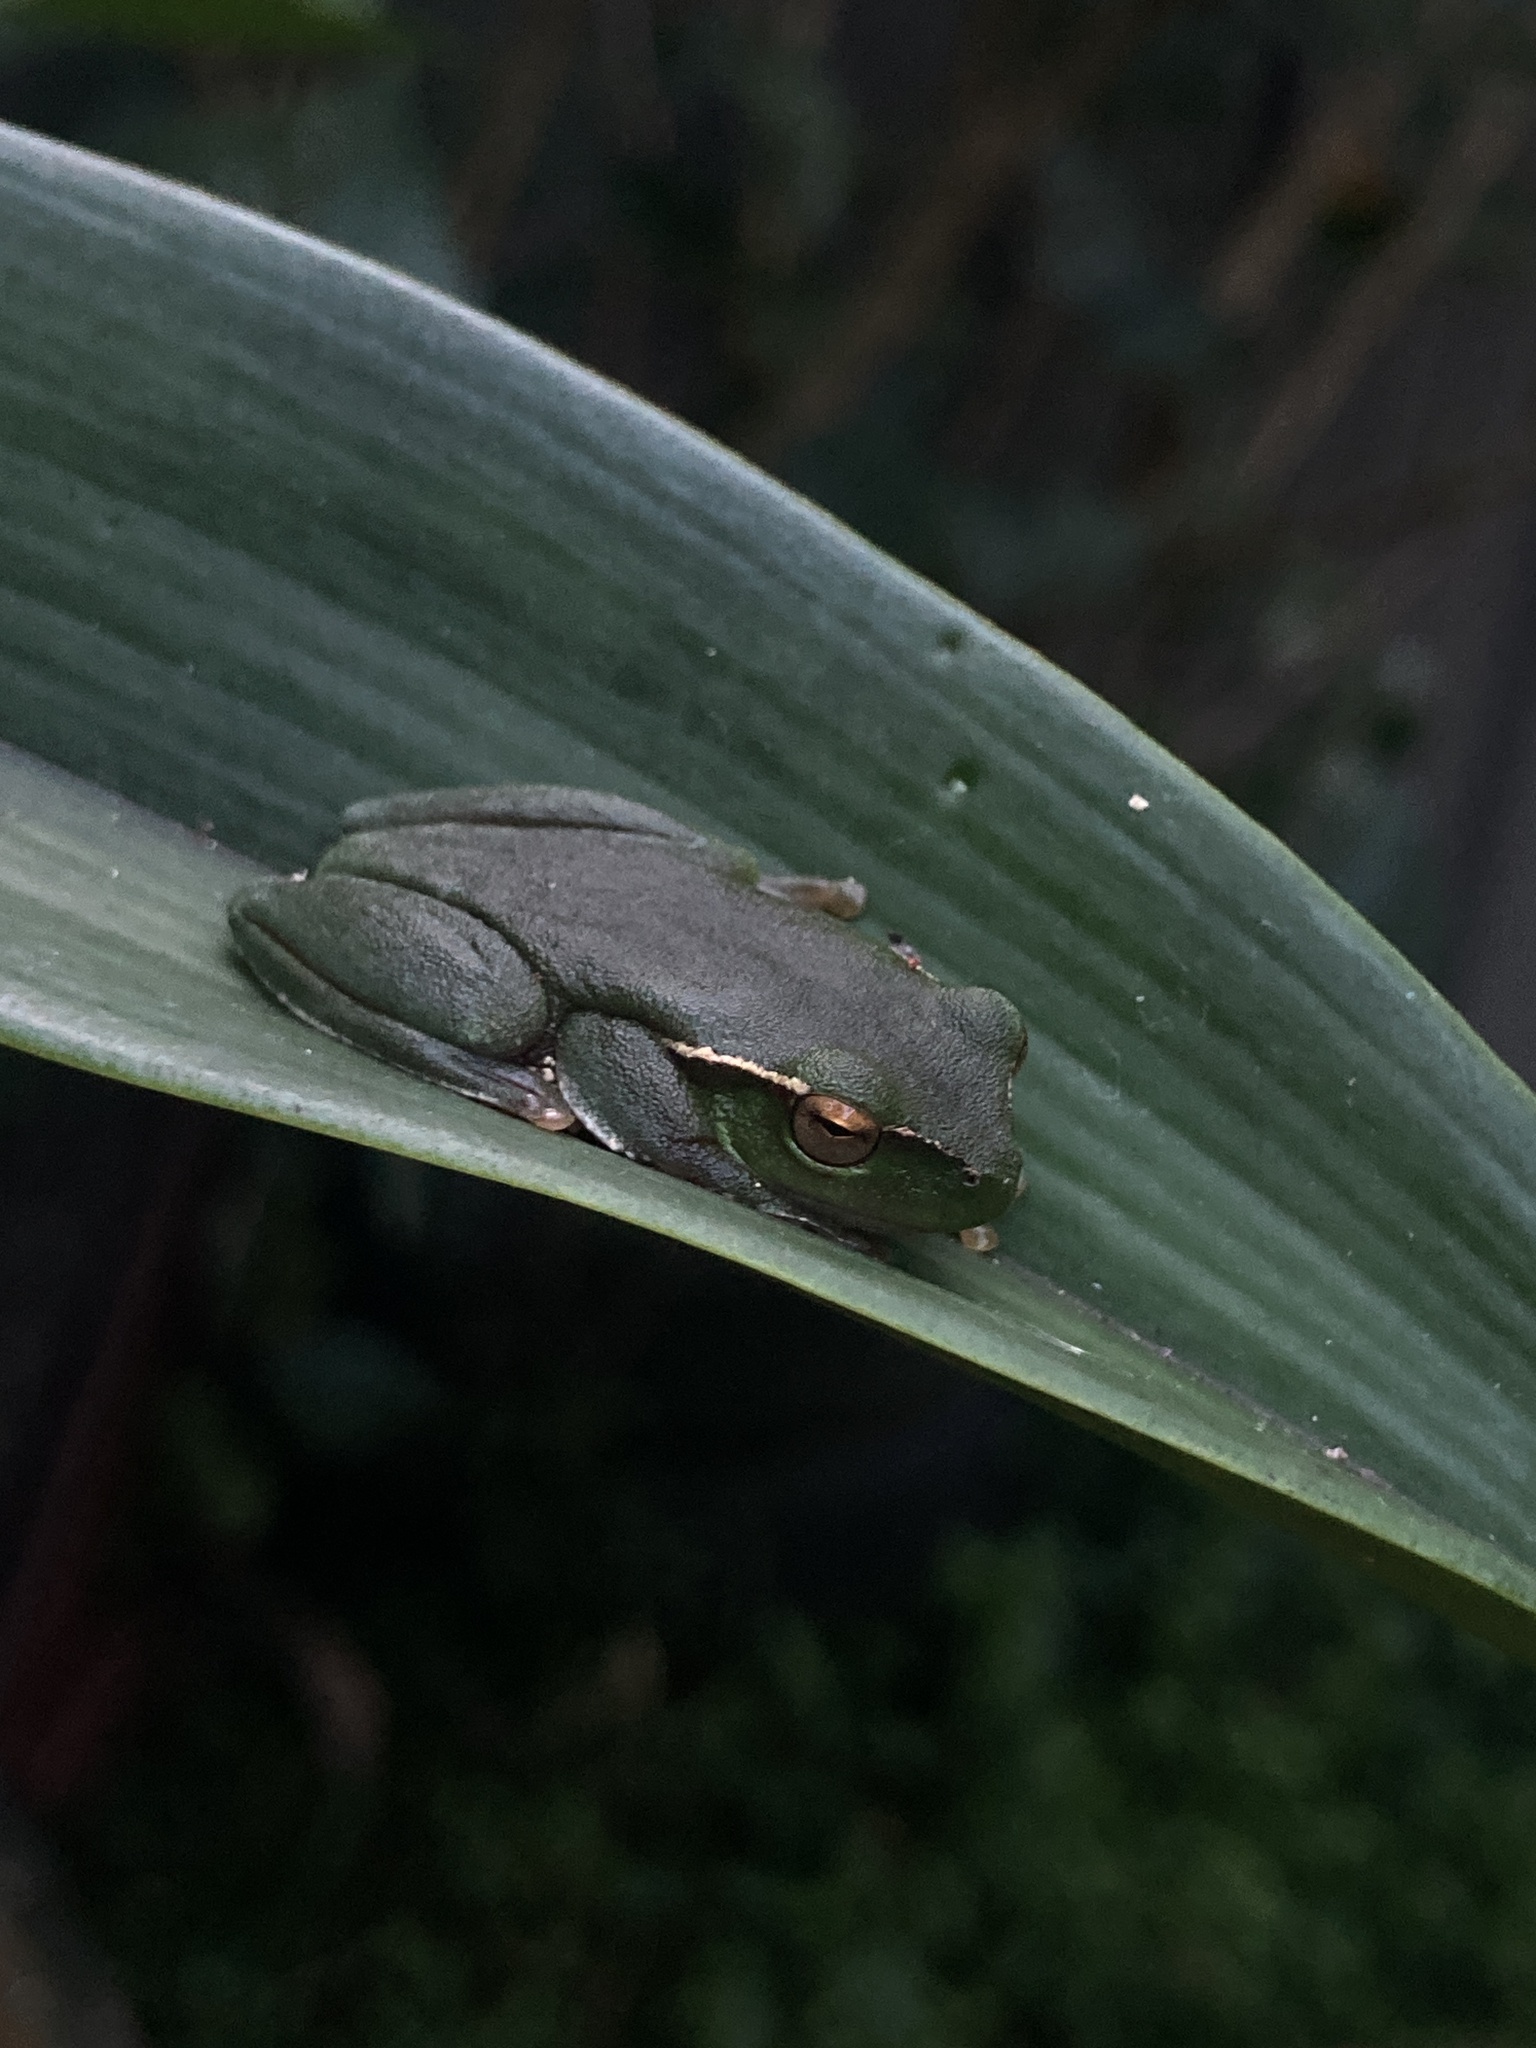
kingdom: Animalia
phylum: Chordata
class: Amphibia
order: Anura
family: Pelodryadidae
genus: Ranoidea
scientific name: Ranoidea phyllochroa
